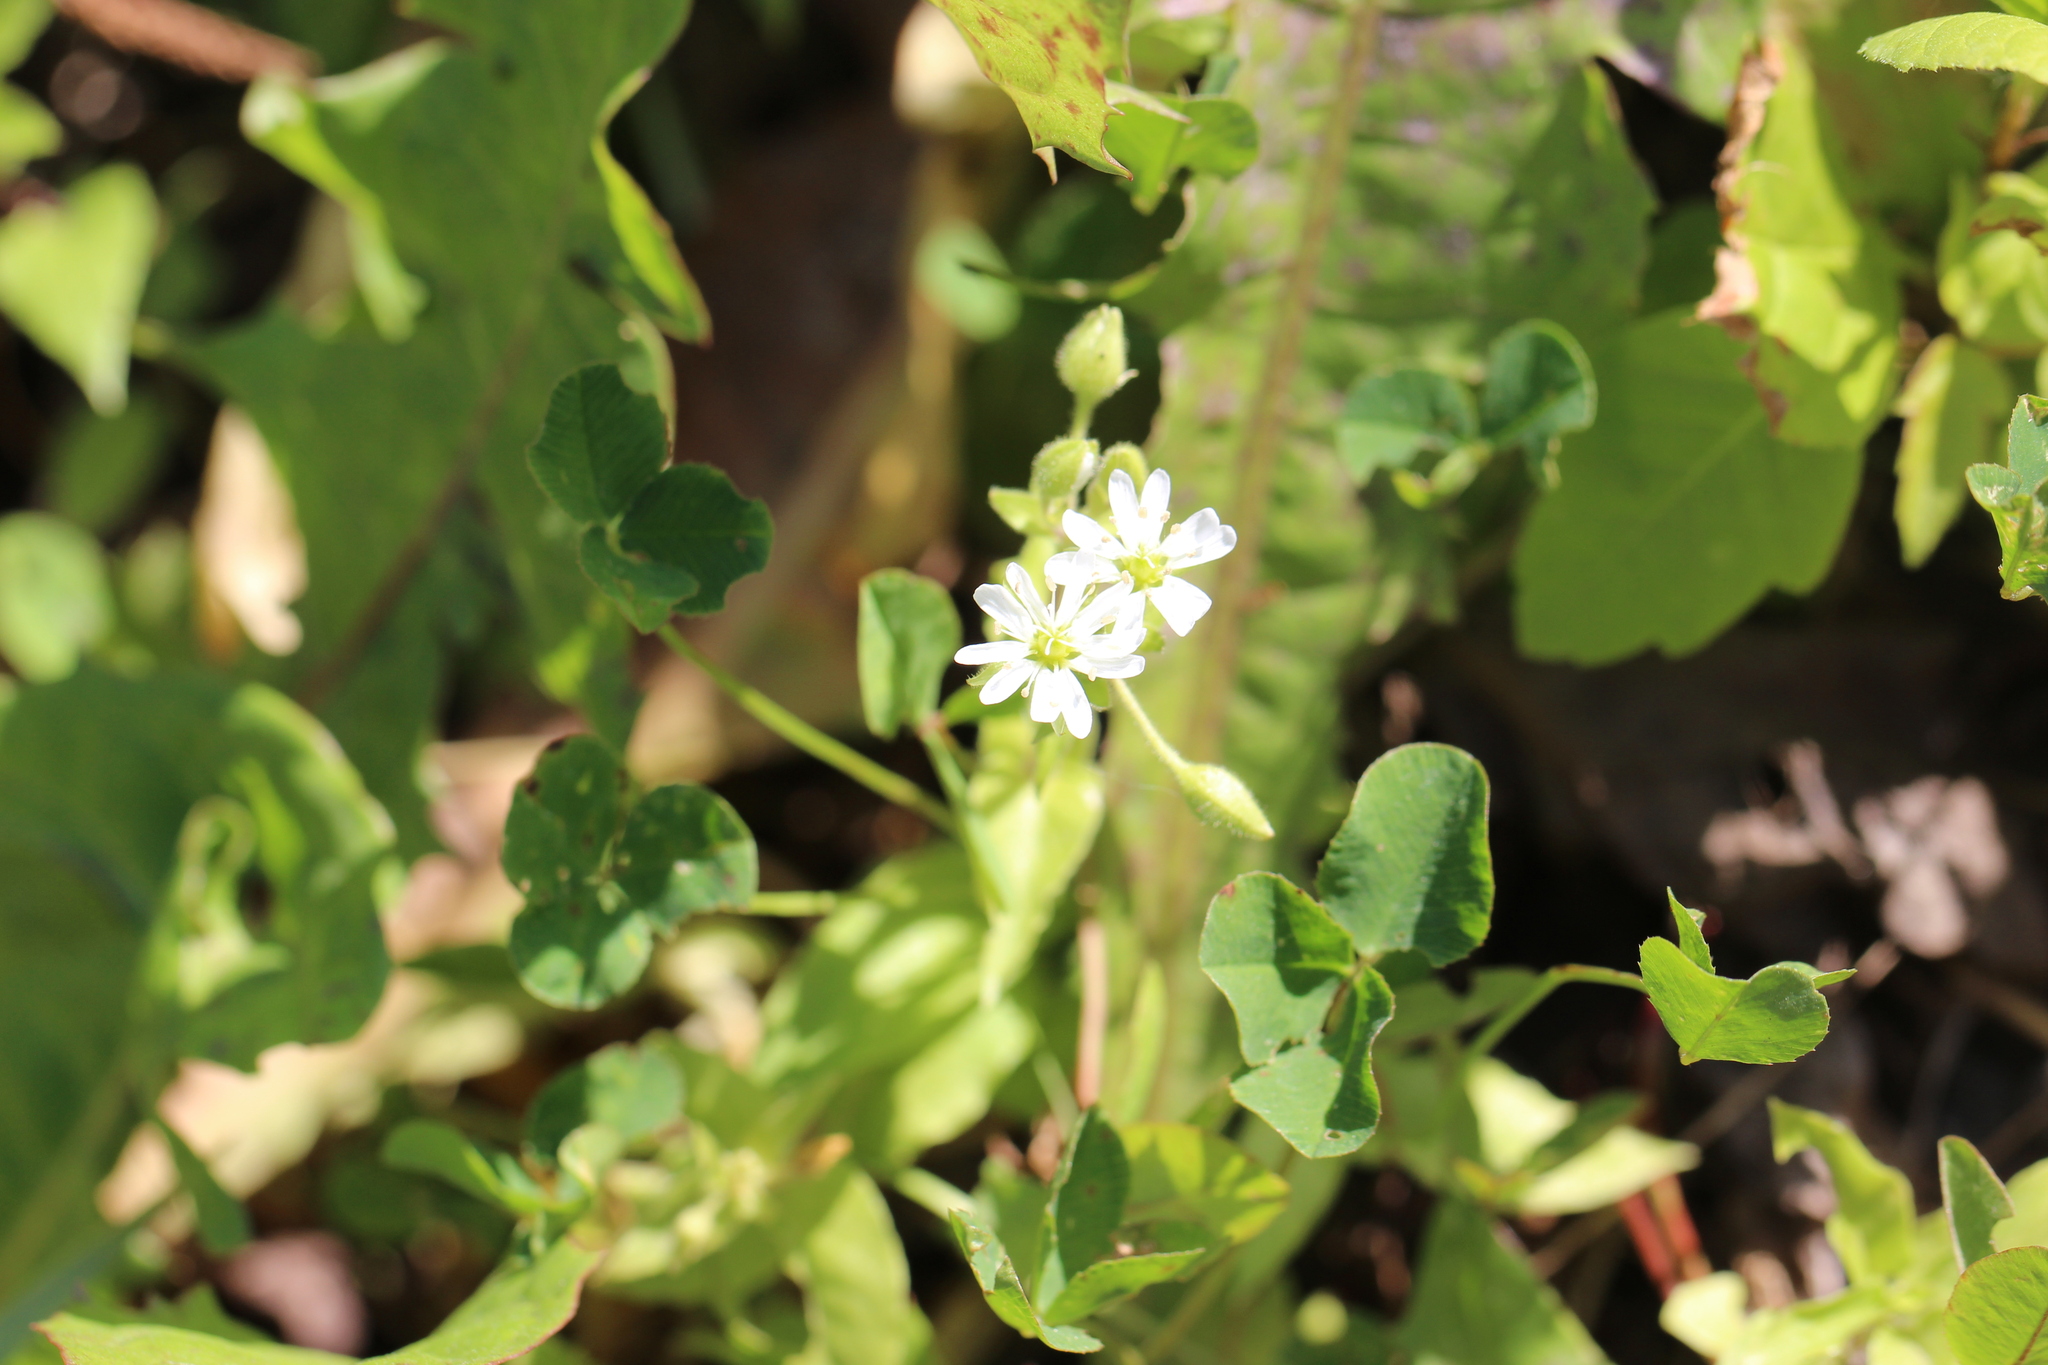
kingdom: Plantae
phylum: Tracheophyta
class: Magnoliopsida
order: Caryophyllales
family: Caryophyllaceae
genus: Stellaria
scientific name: Stellaria aquatica
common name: Water chickweed
